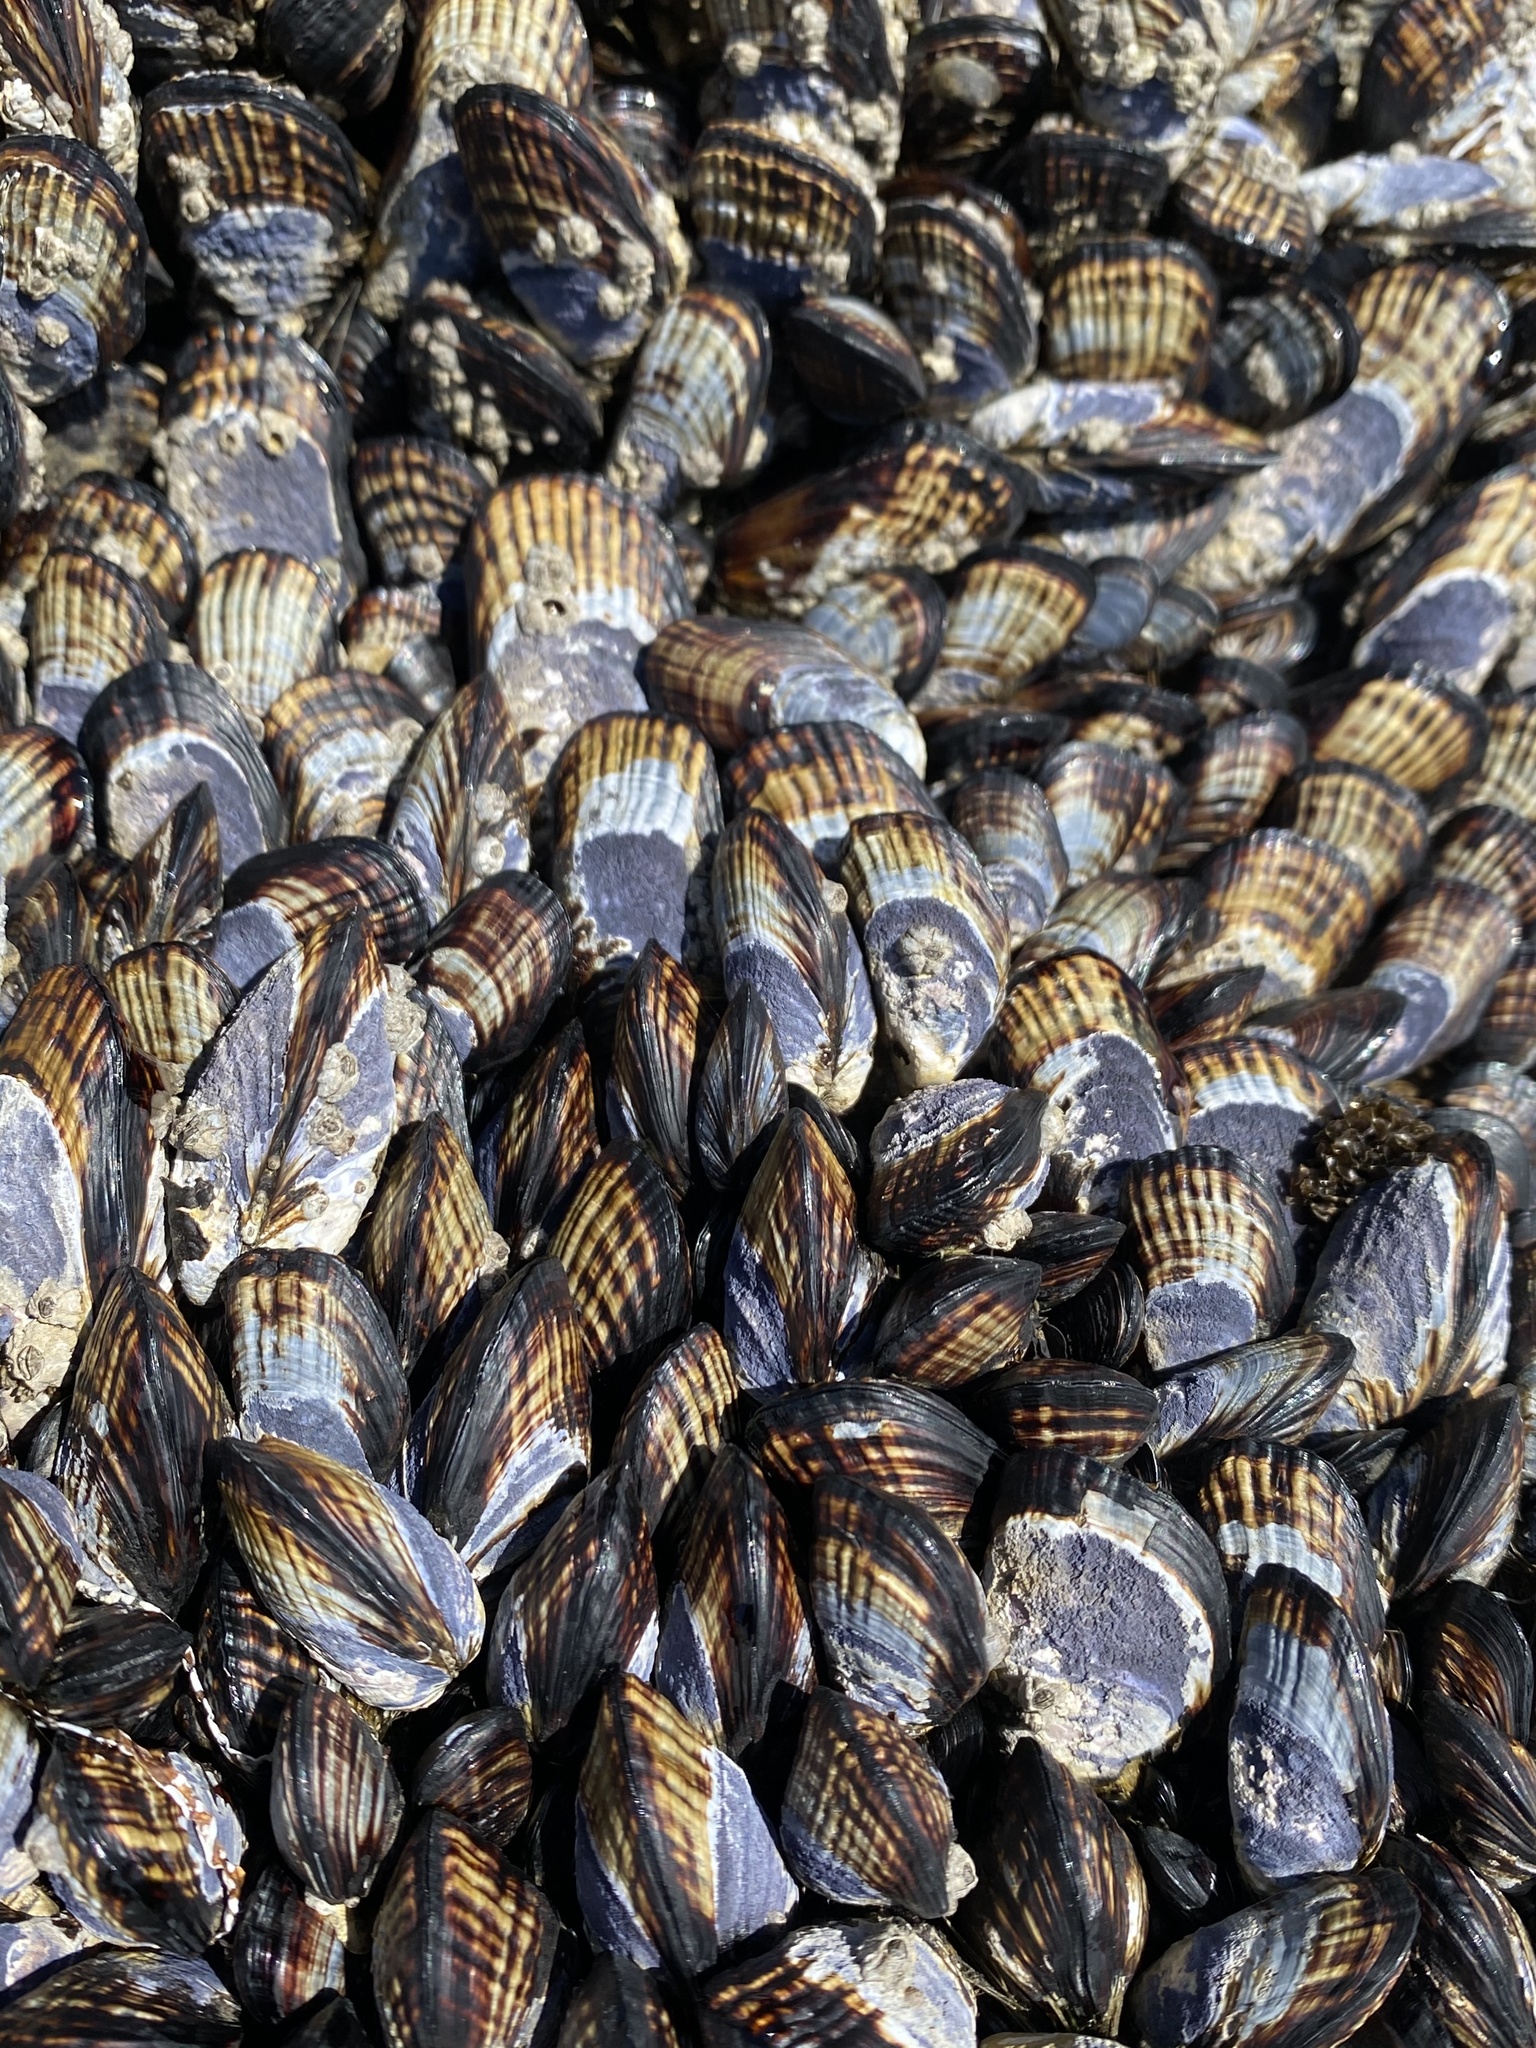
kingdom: Animalia
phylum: Mollusca
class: Bivalvia
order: Mytilida
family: Mytilidae
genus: Mytilus
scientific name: Mytilus californianus
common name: California mussel
